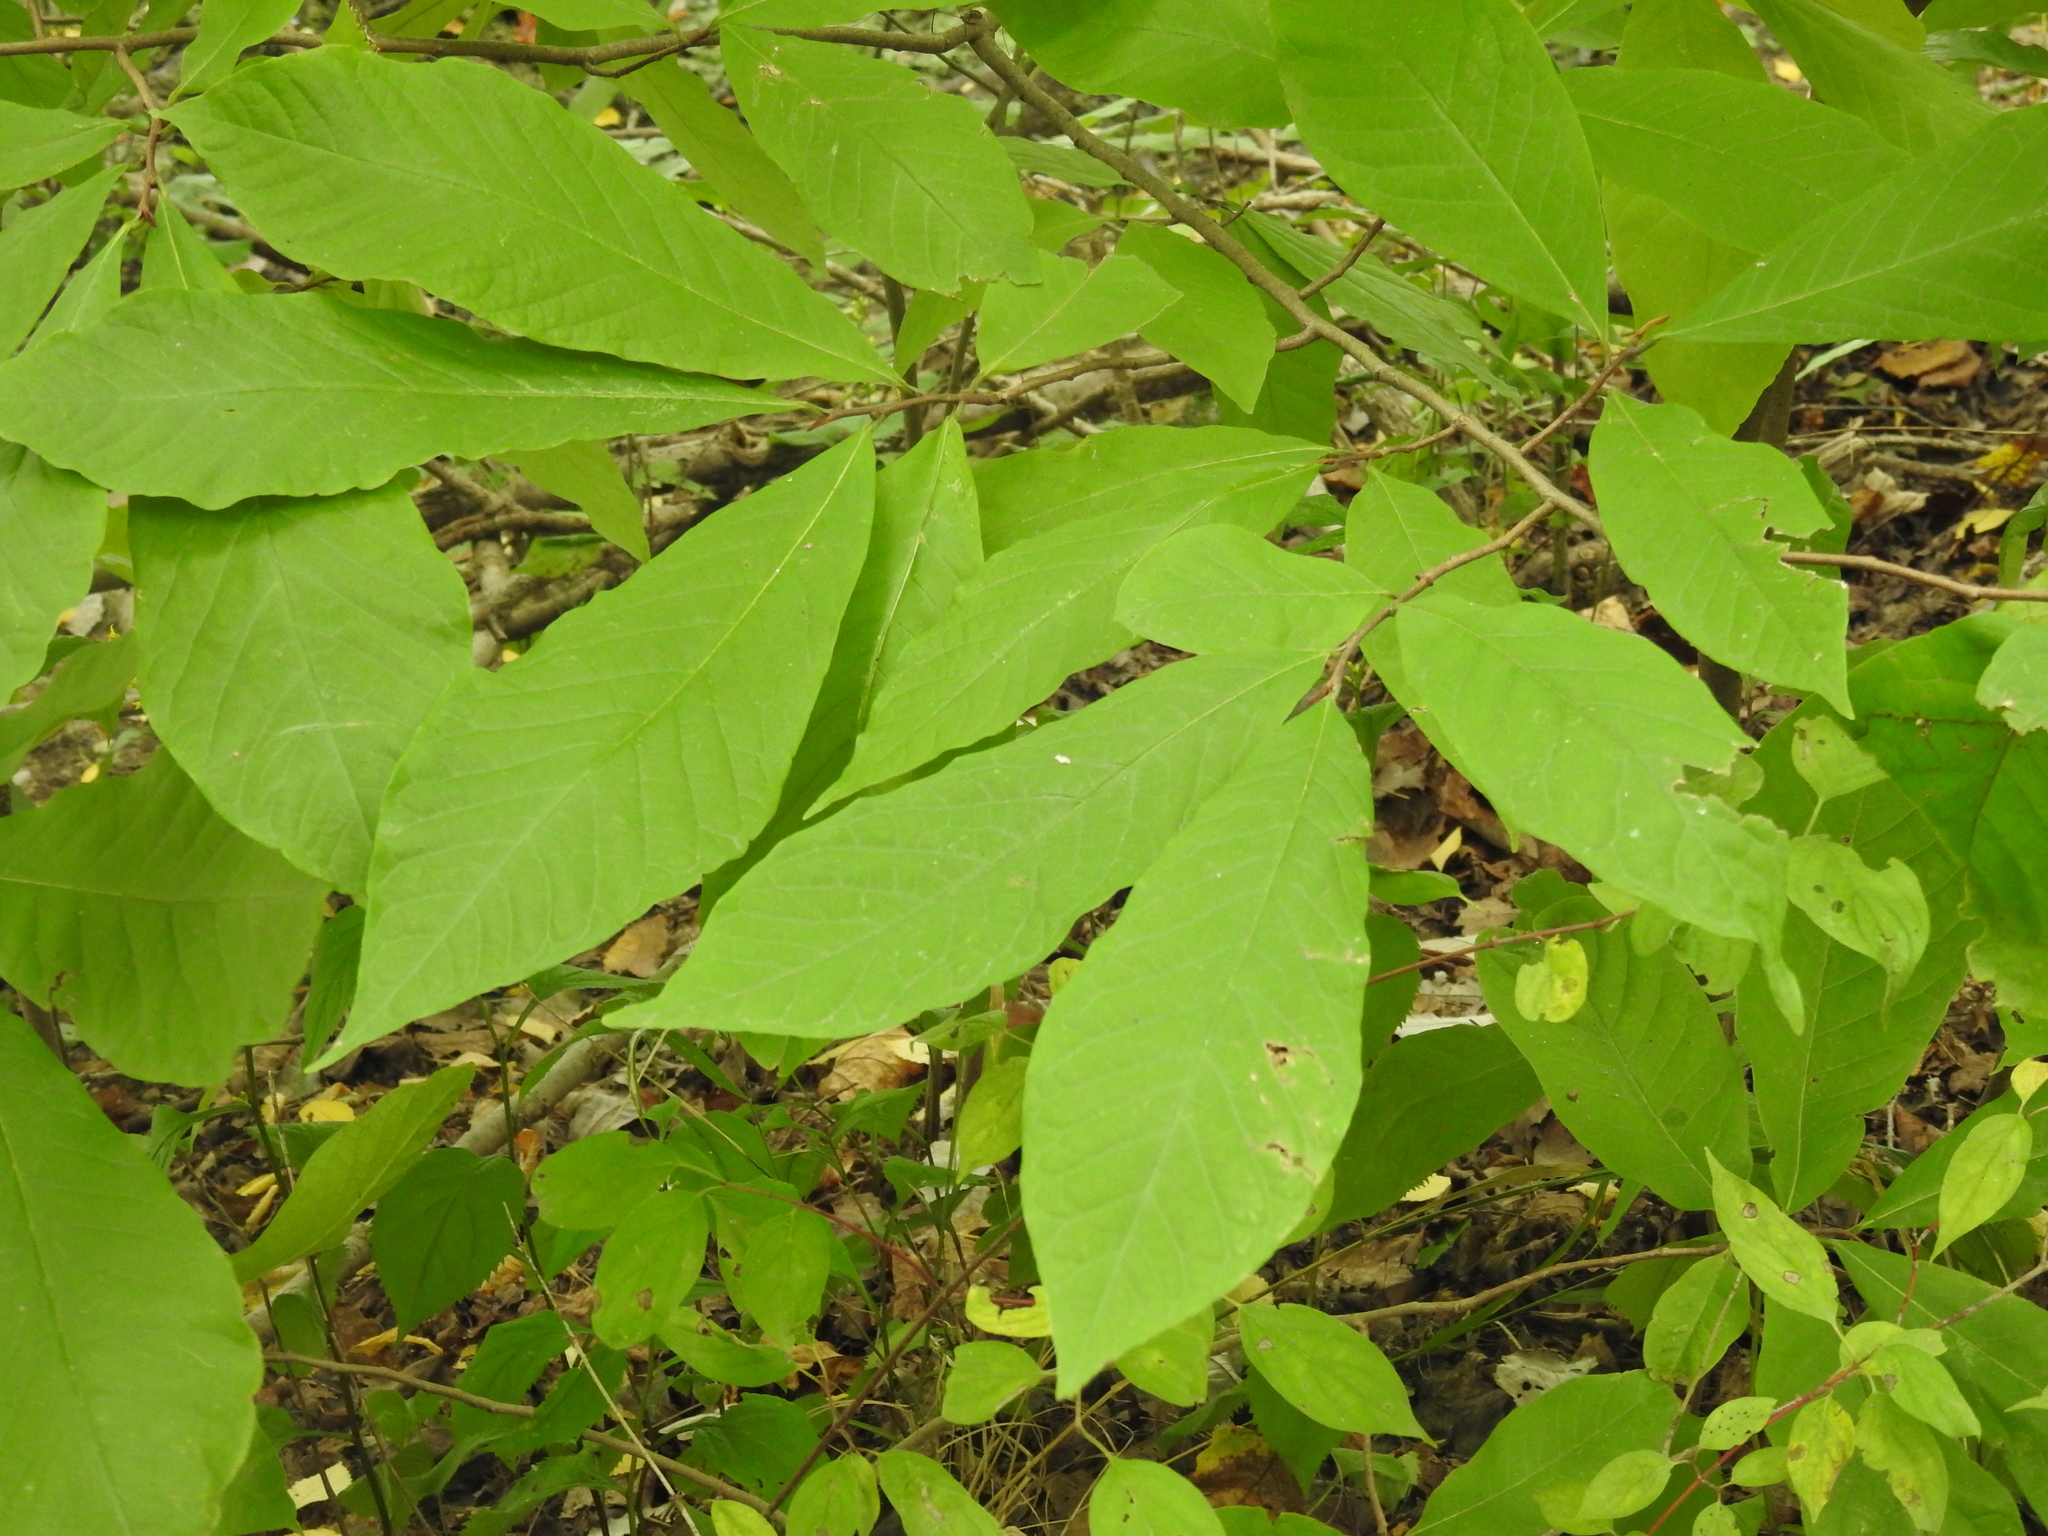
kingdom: Plantae
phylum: Tracheophyta
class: Magnoliopsida
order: Magnoliales
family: Annonaceae
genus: Asimina
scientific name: Asimina triloba
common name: Dog-banana
